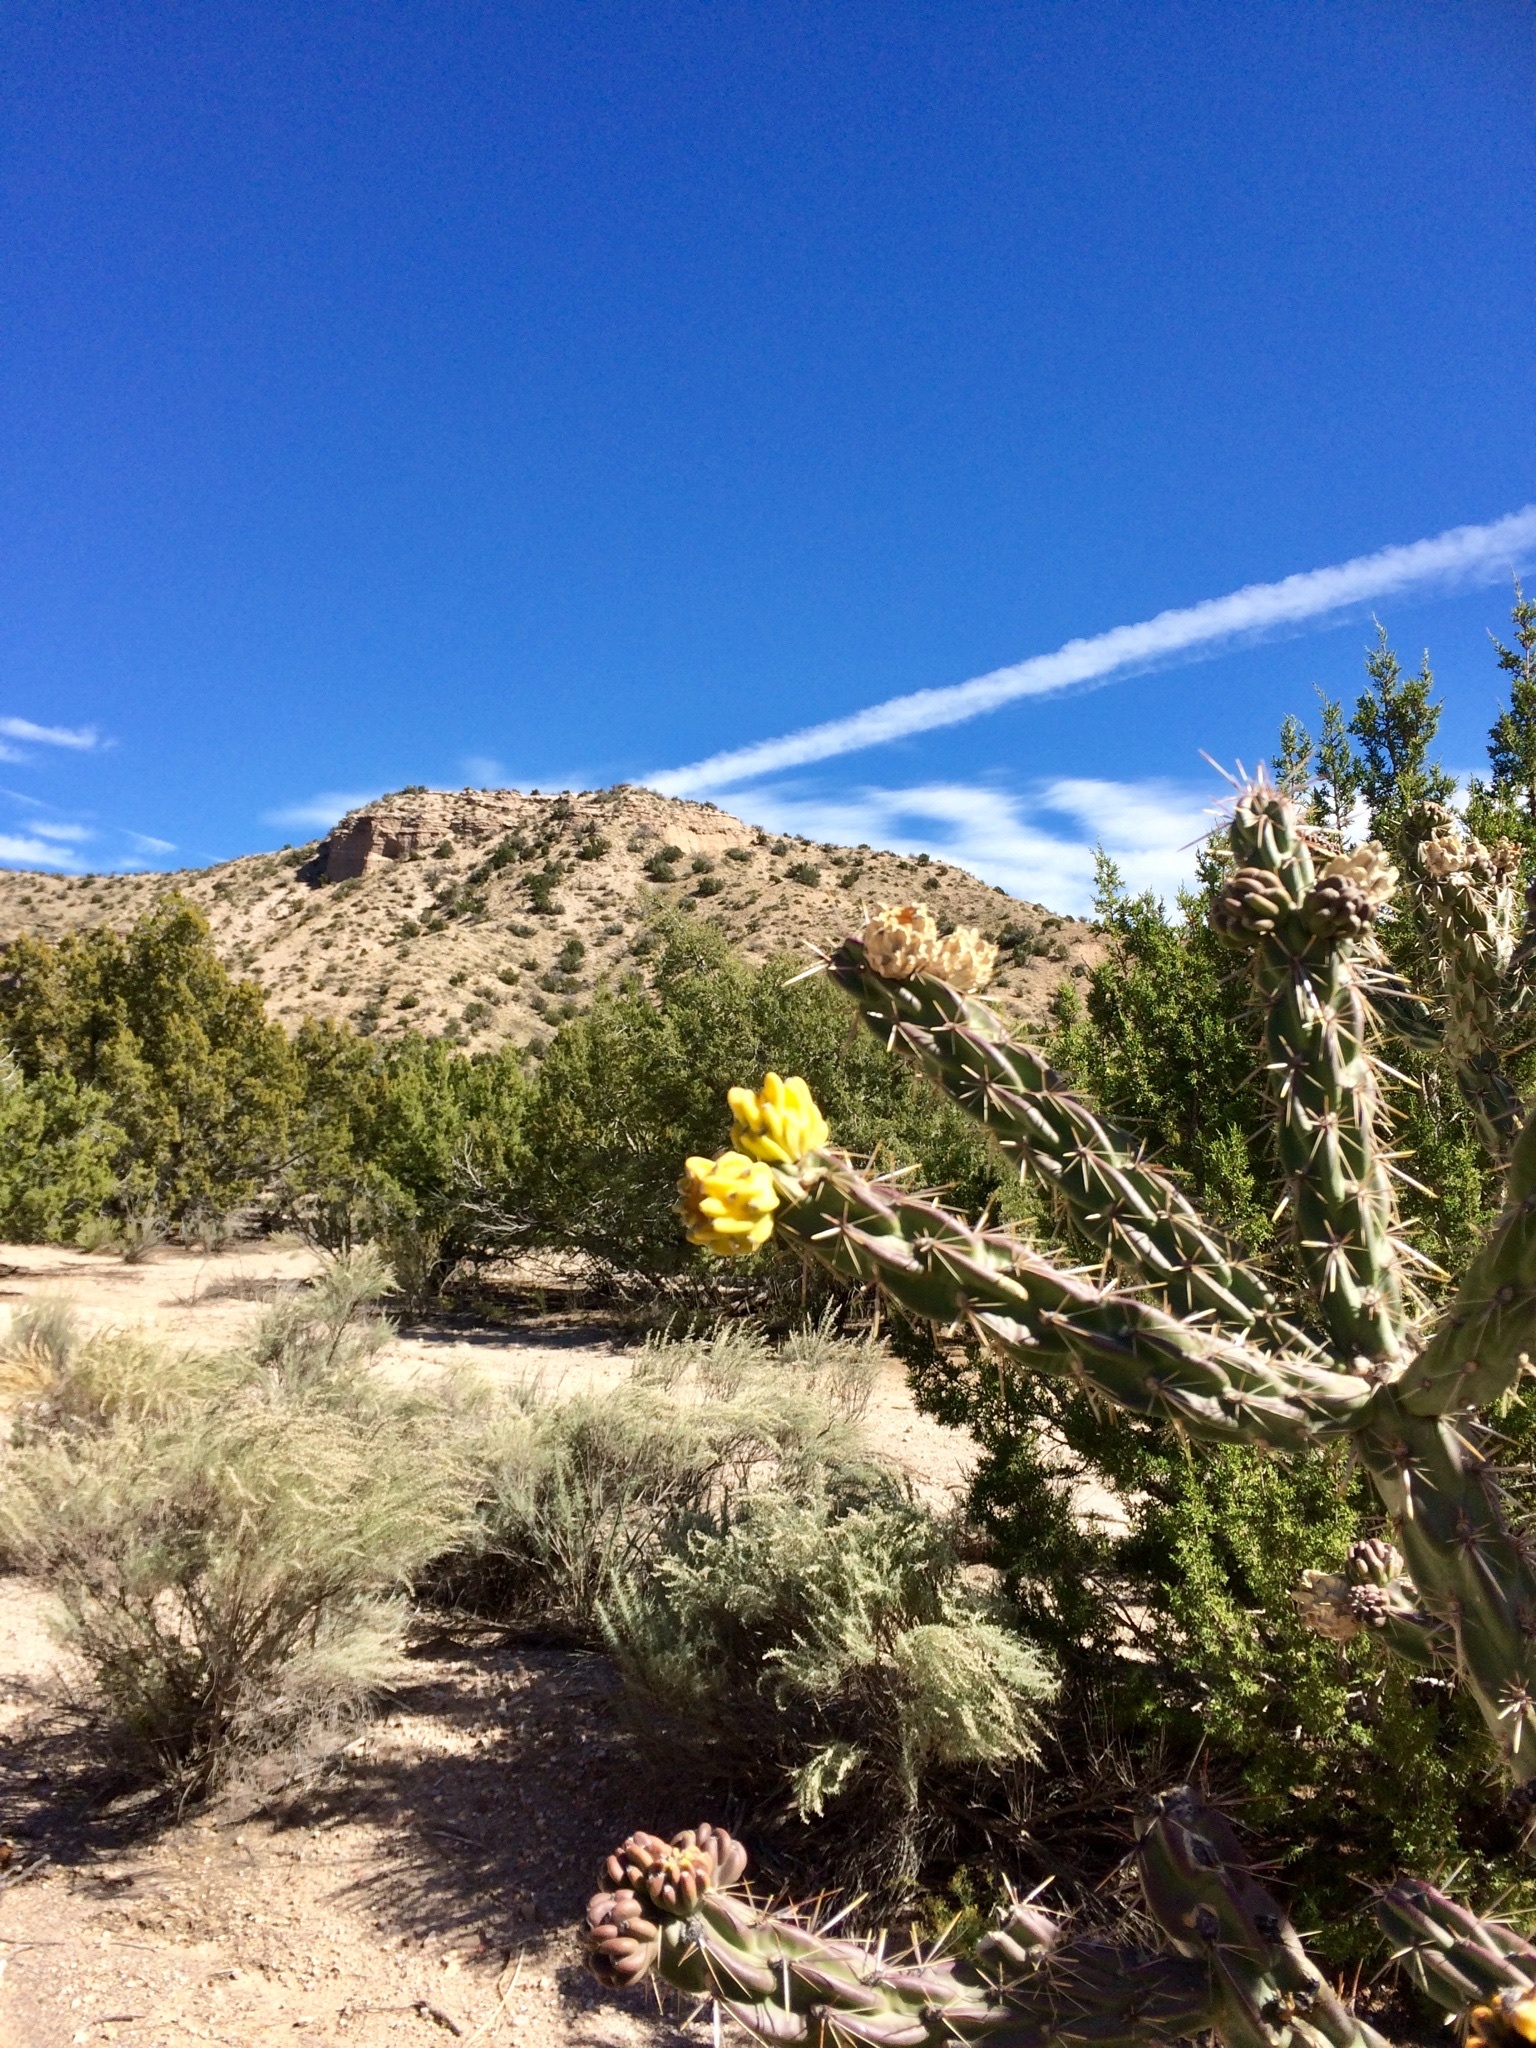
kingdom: Plantae
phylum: Tracheophyta
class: Magnoliopsida
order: Caryophyllales
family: Cactaceae
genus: Cylindropuntia
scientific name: Cylindropuntia imbricata
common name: Candelabrum cactus
